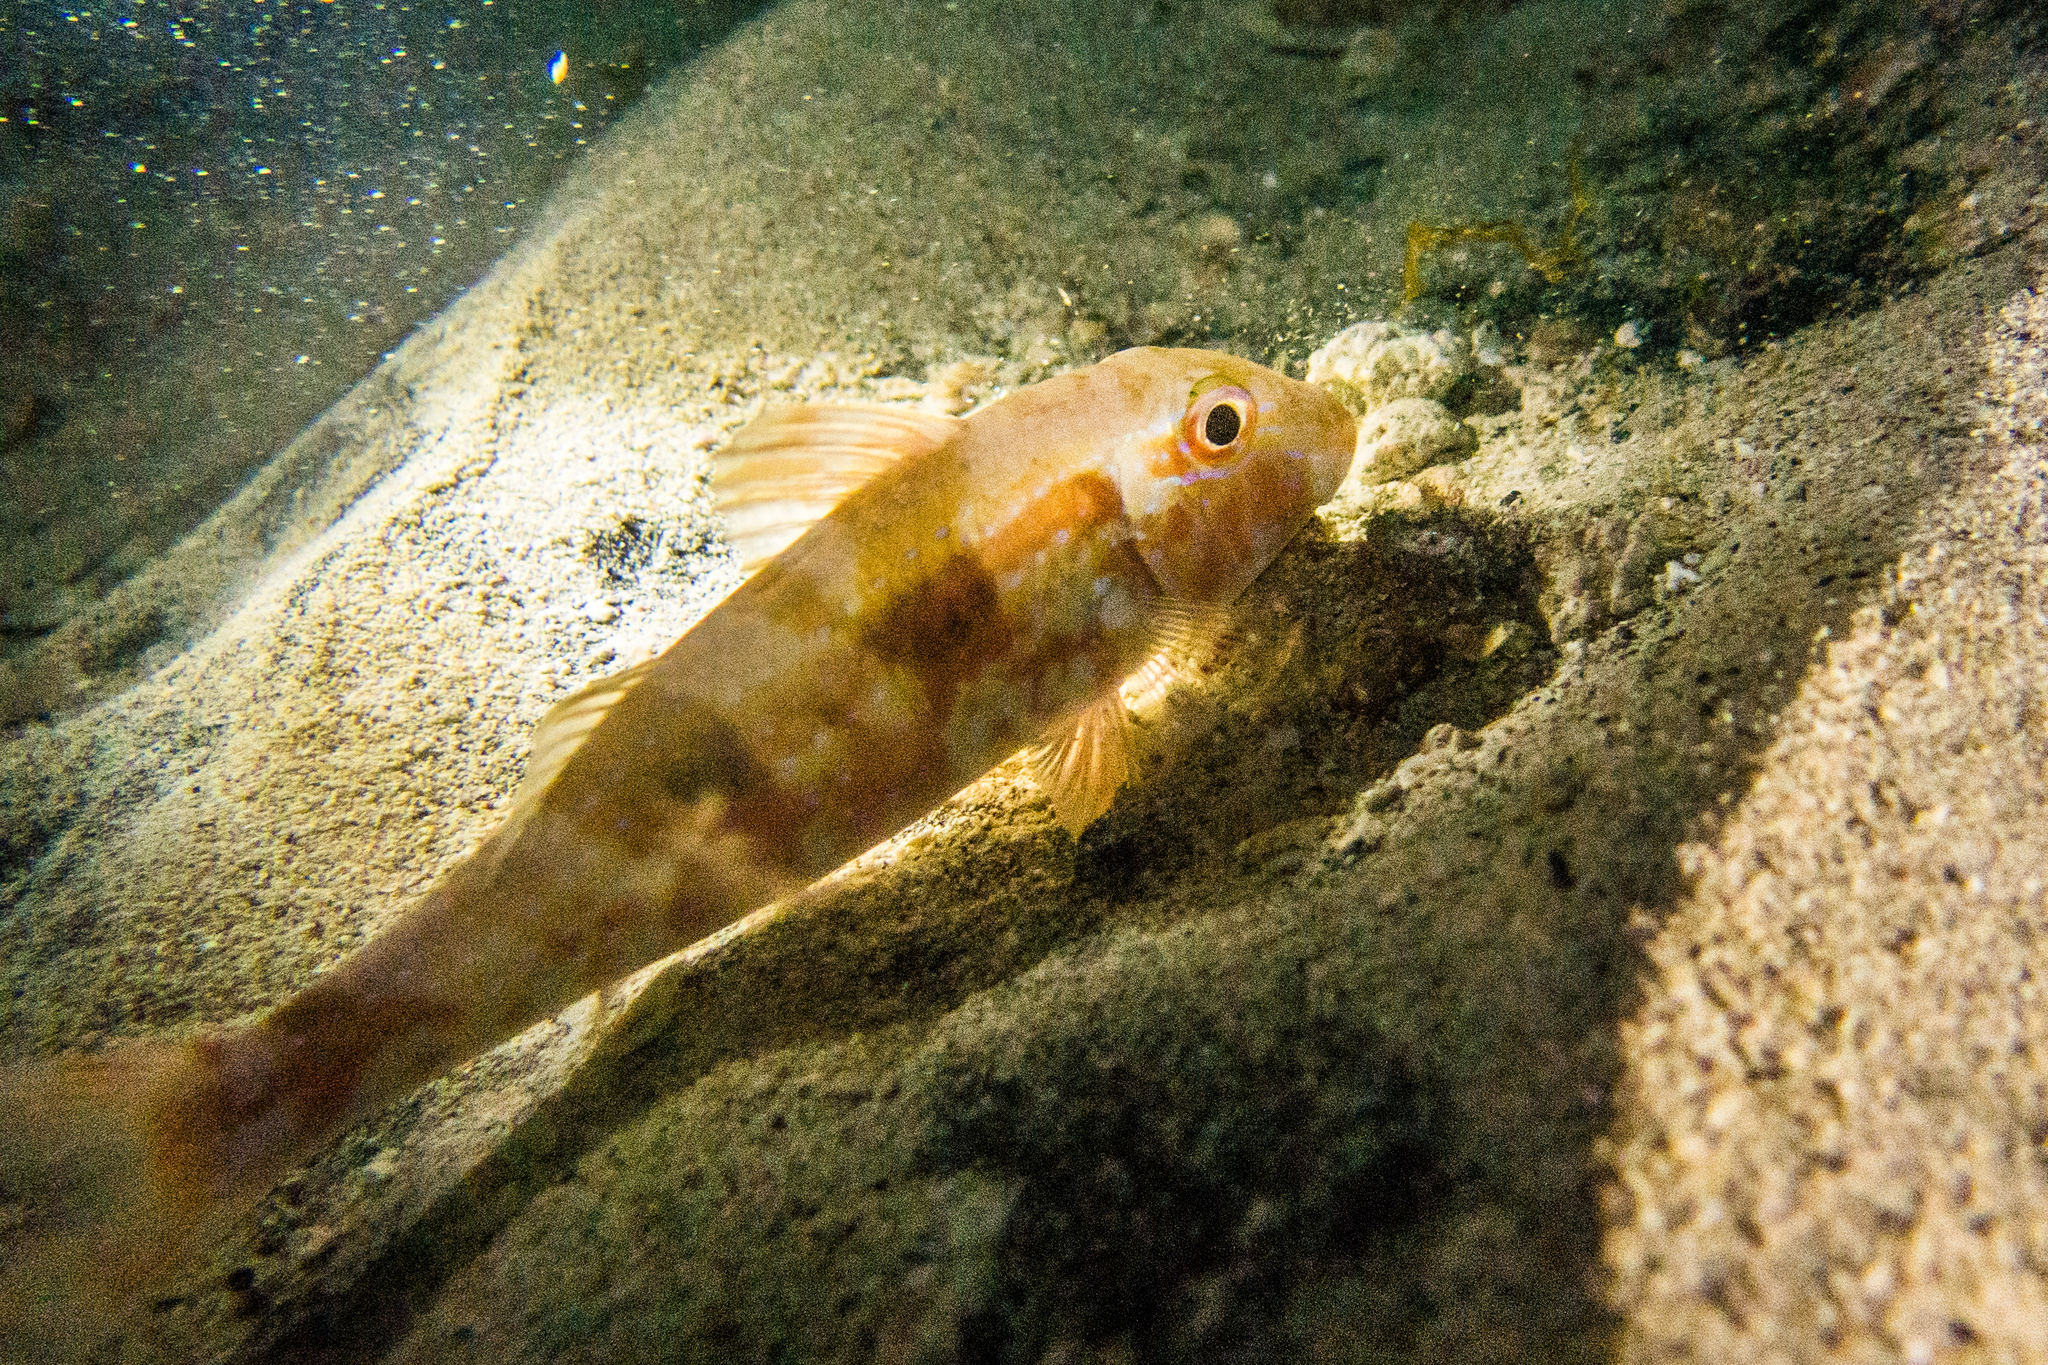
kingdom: Animalia
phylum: Chordata
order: Perciformes
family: Mullidae
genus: Pseudupeneus
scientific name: Pseudupeneus maculatus
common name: Spotted goatfish
